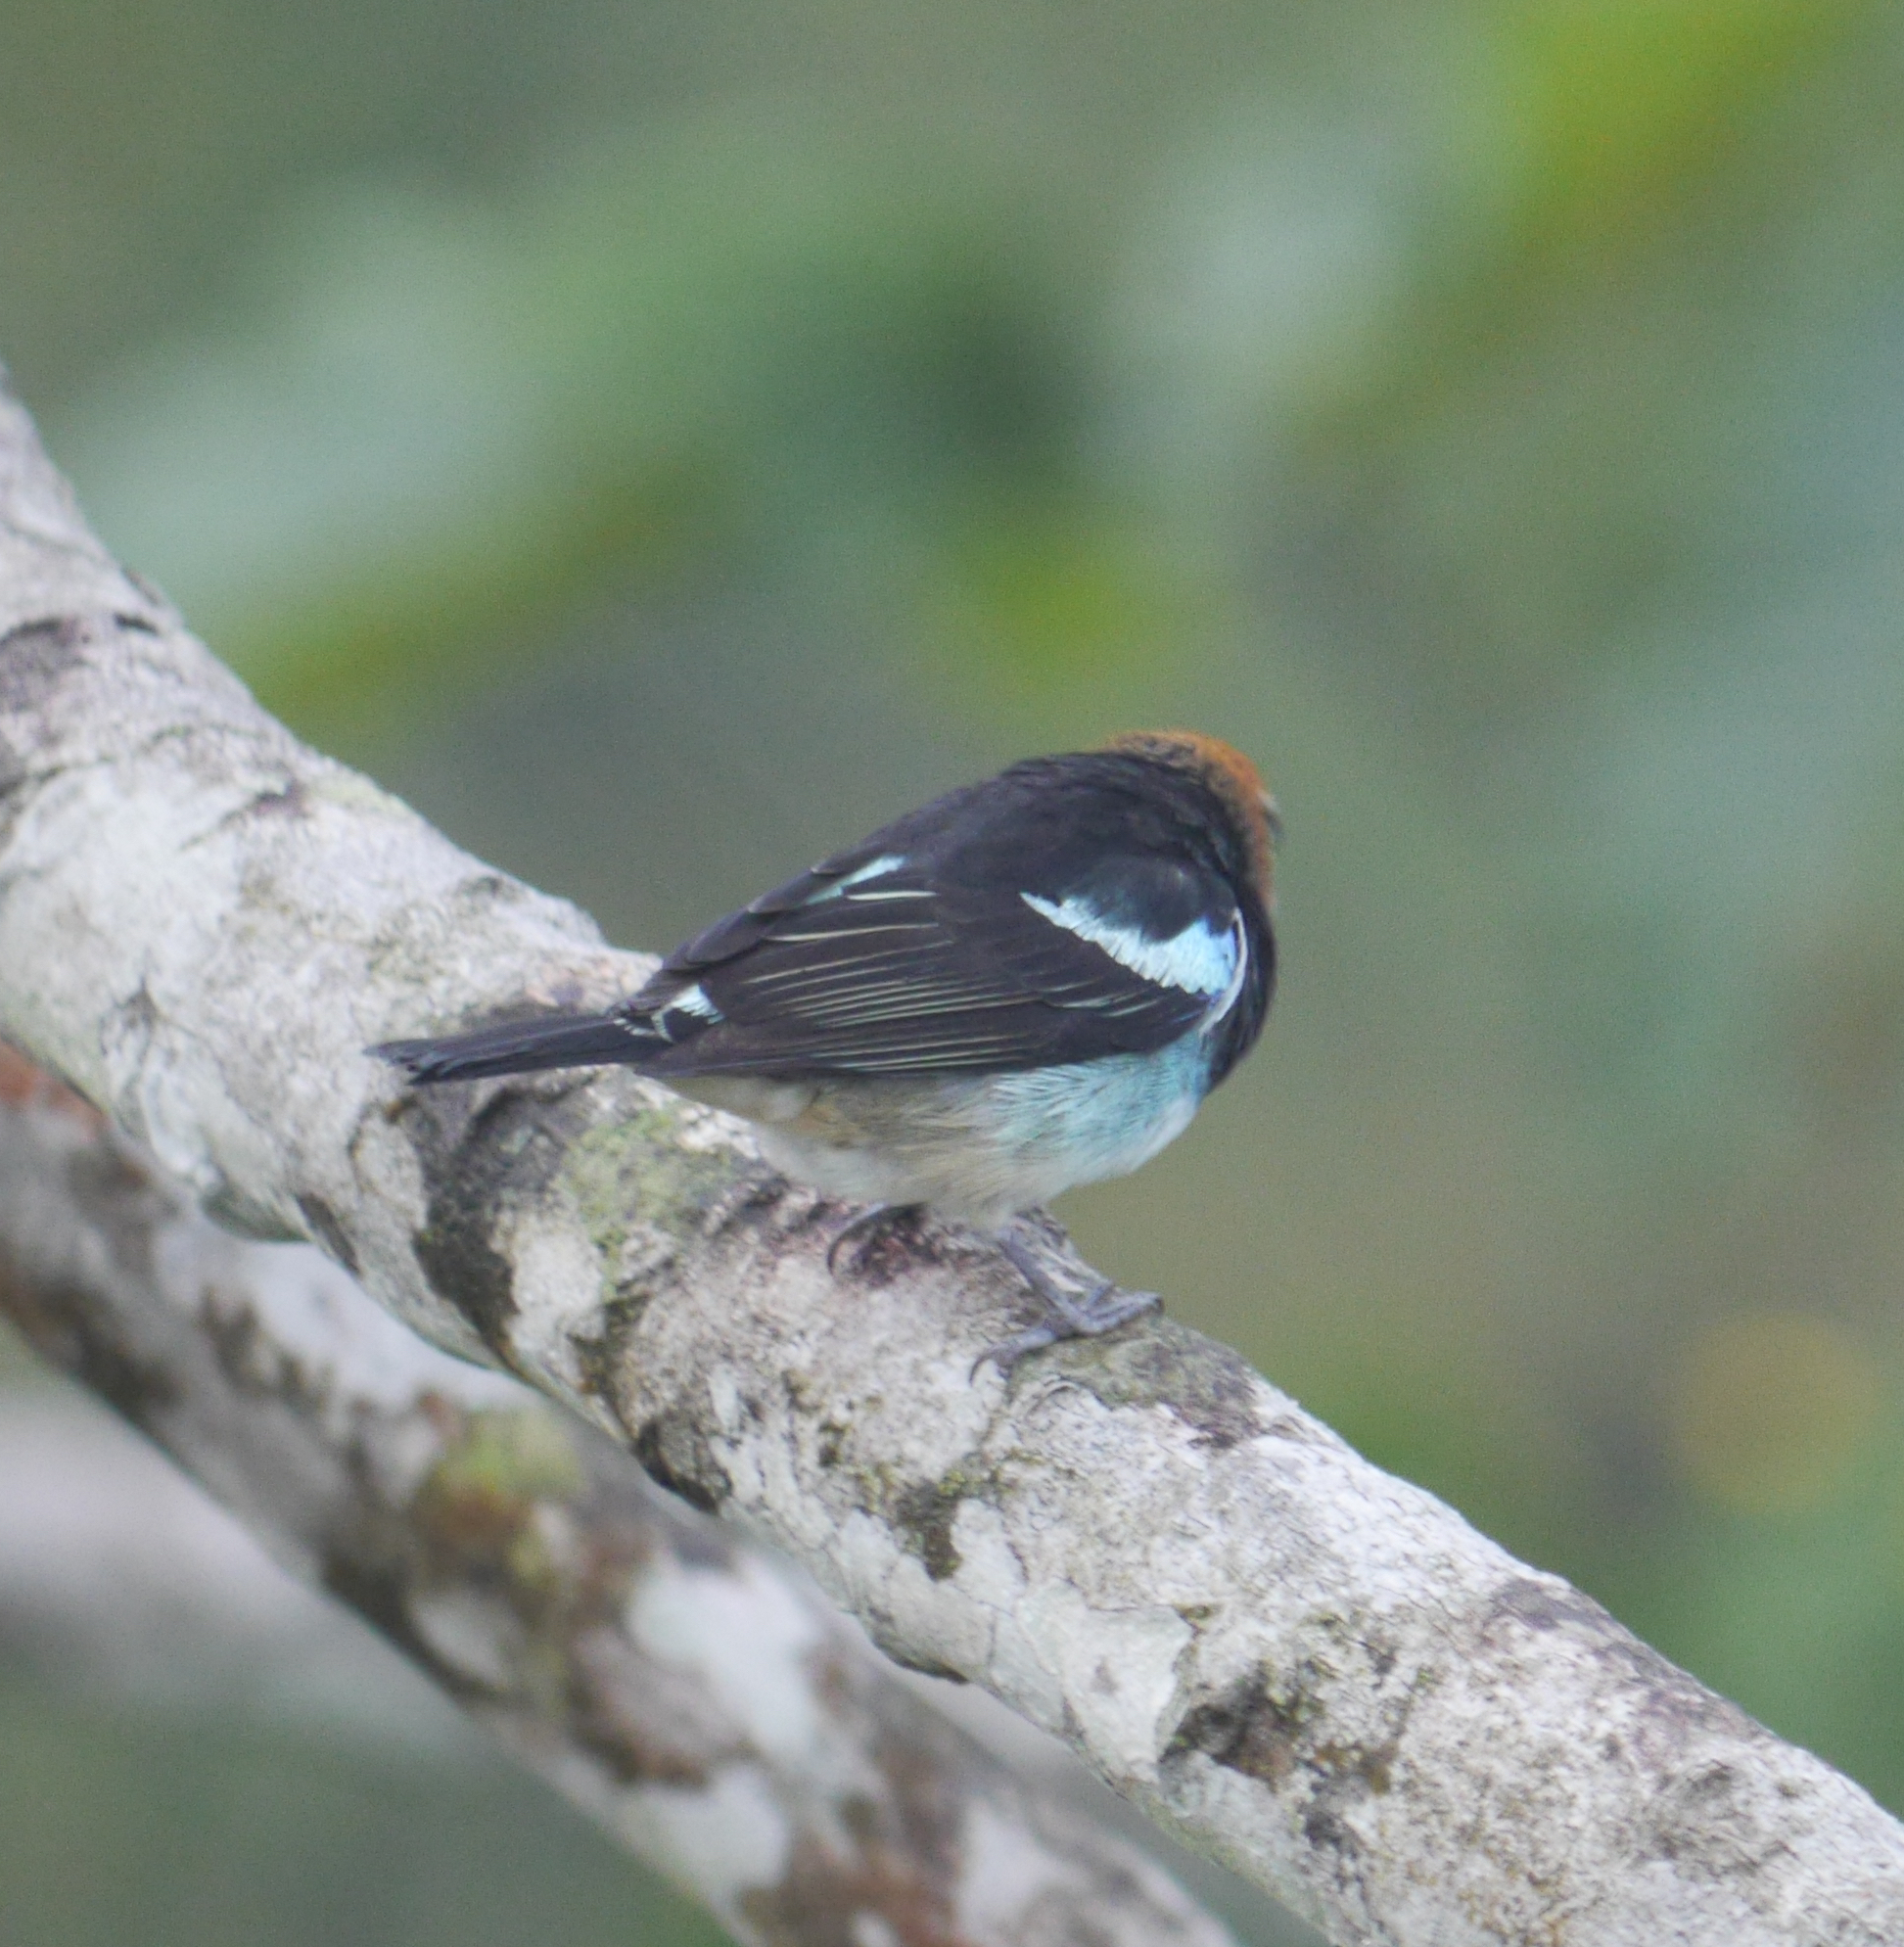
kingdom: Animalia
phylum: Chordata
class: Aves
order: Passeriformes
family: Thraupidae
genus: Stilpnia
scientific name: Stilpnia larvata
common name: Golden-hooded tanager
